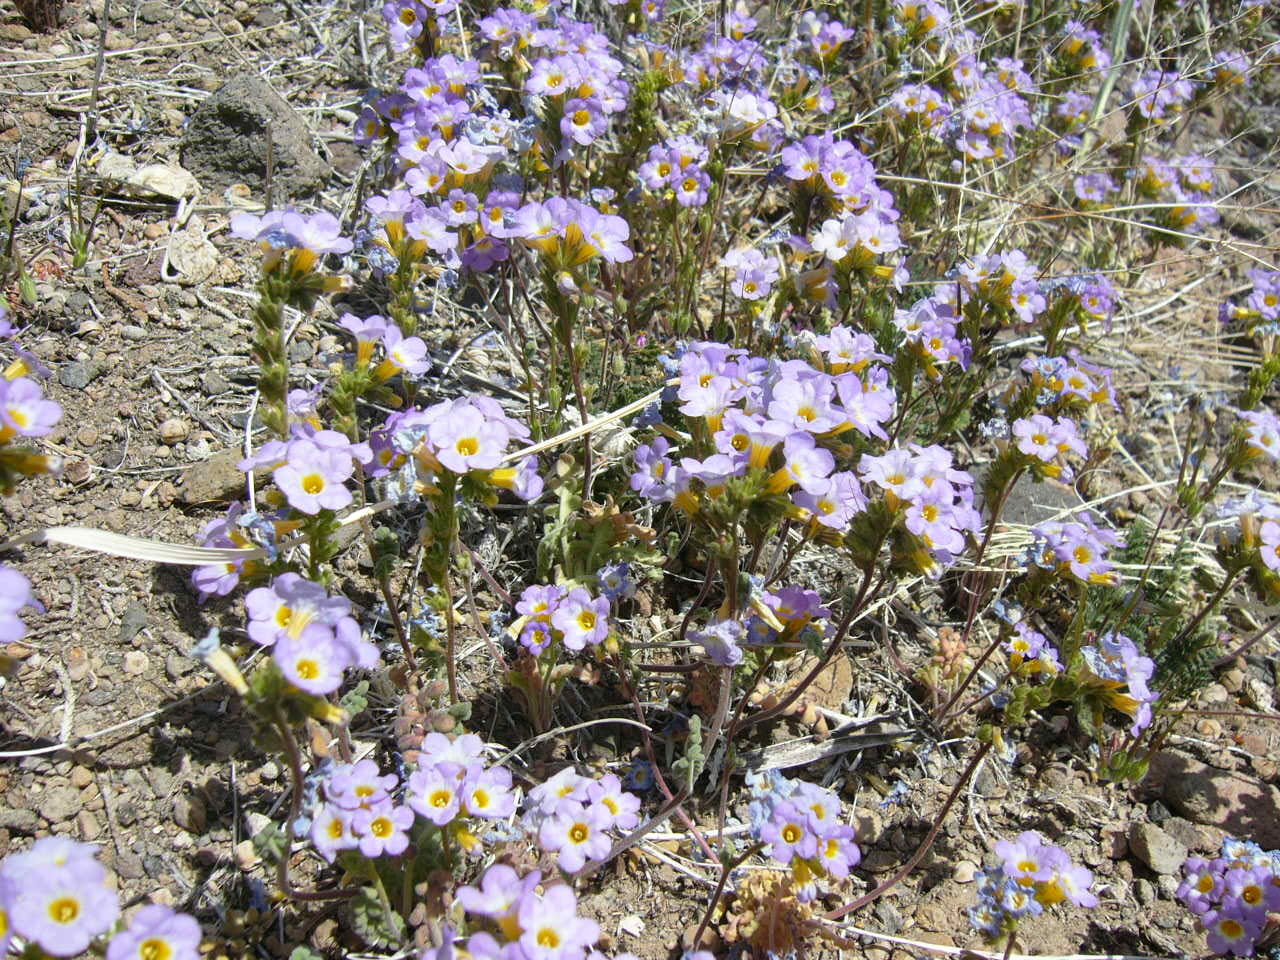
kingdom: Plantae
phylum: Tracheophyta
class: Magnoliopsida
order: Boraginales
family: Hydrophyllaceae
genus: Phacelia
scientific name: Phacelia fremontii
